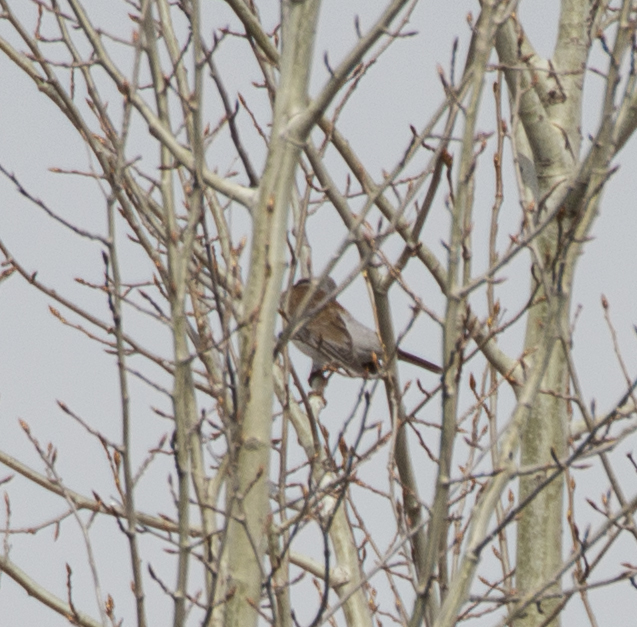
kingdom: Animalia
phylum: Chordata
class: Aves
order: Passeriformes
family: Turdidae
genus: Turdus
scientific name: Turdus pilaris
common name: Fieldfare
